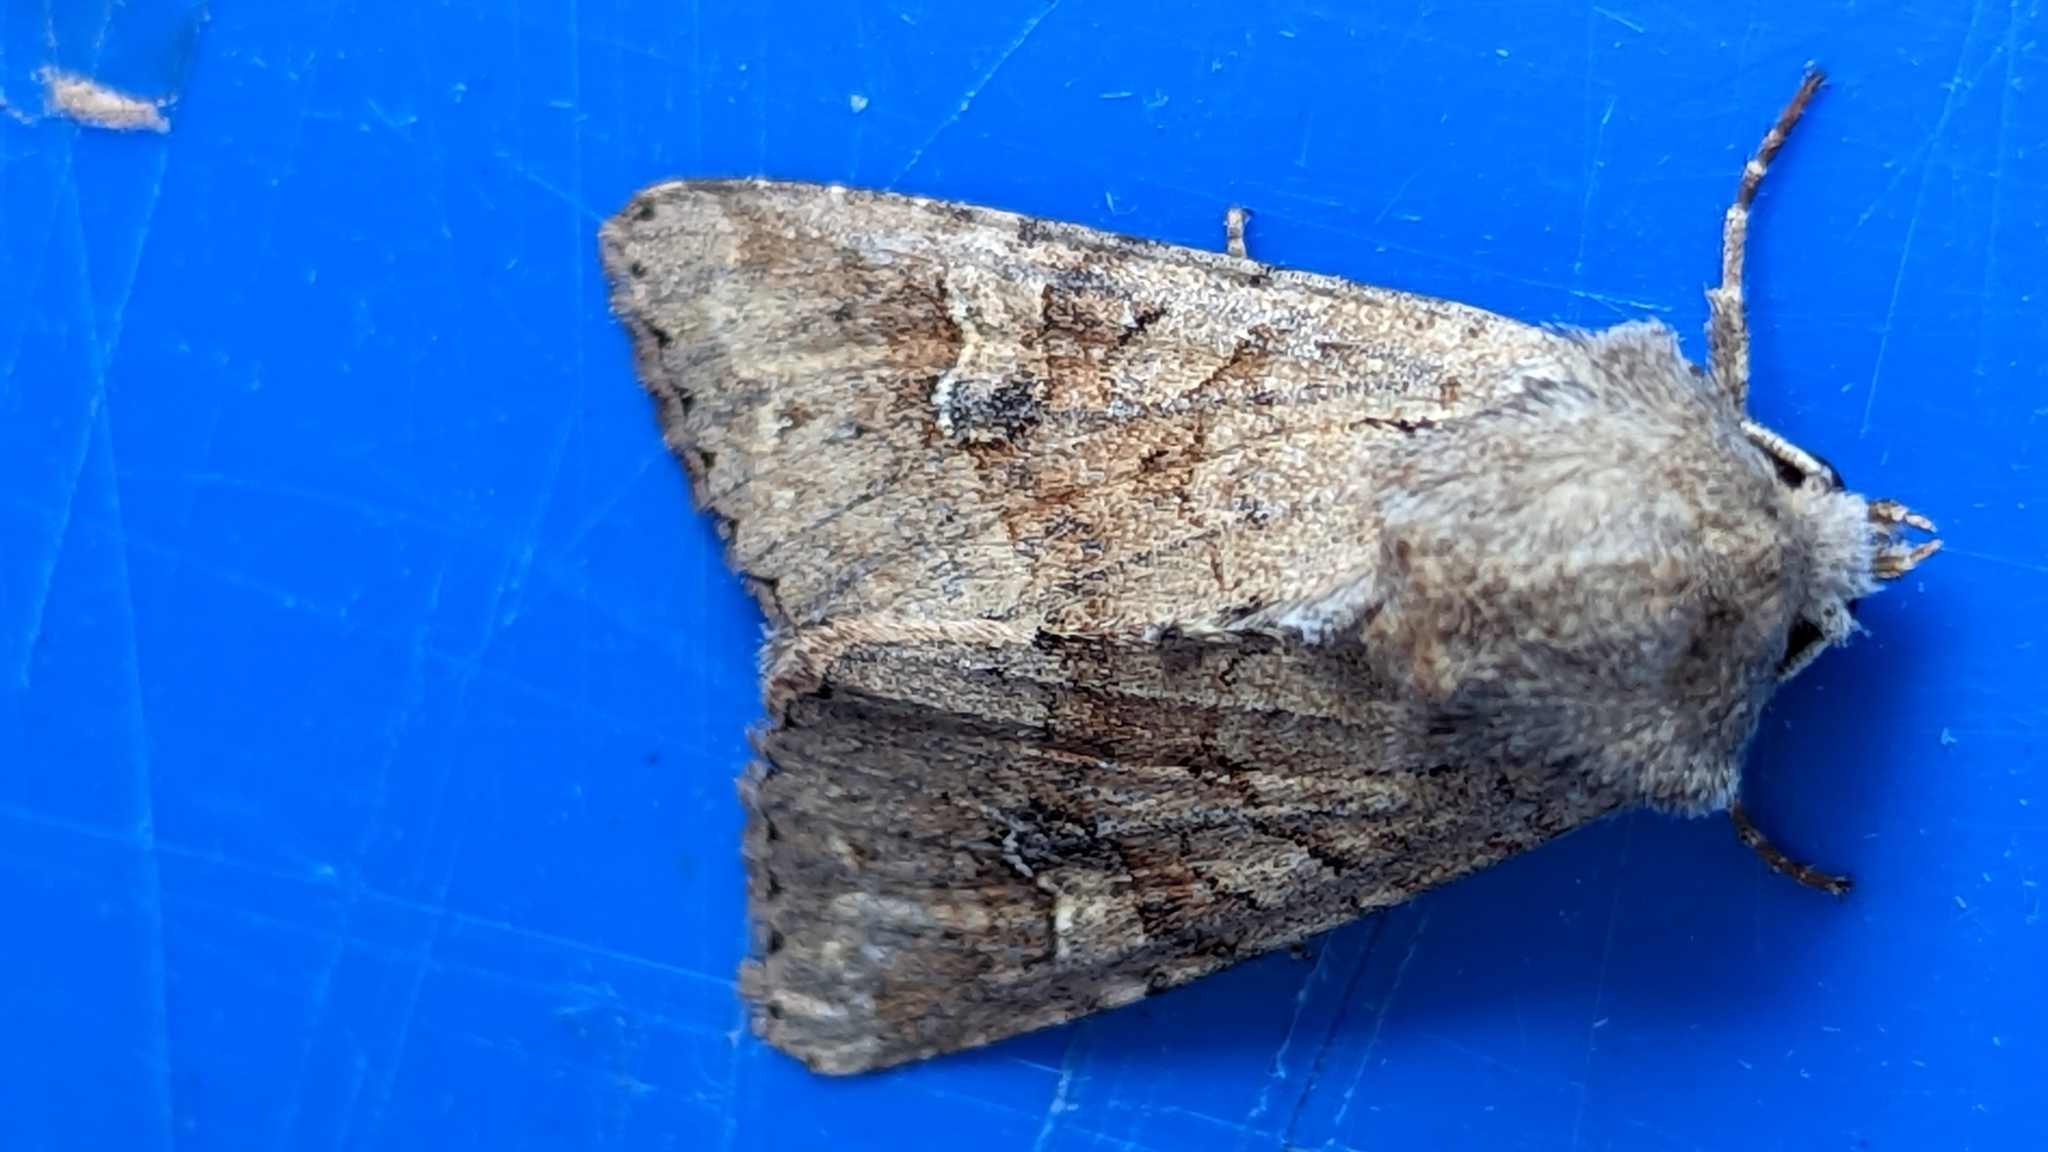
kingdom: Animalia
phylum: Arthropoda
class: Insecta
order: Lepidoptera
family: Noctuidae
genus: Apamea
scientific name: Apamea sordens
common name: Rustic shoulder-knot
